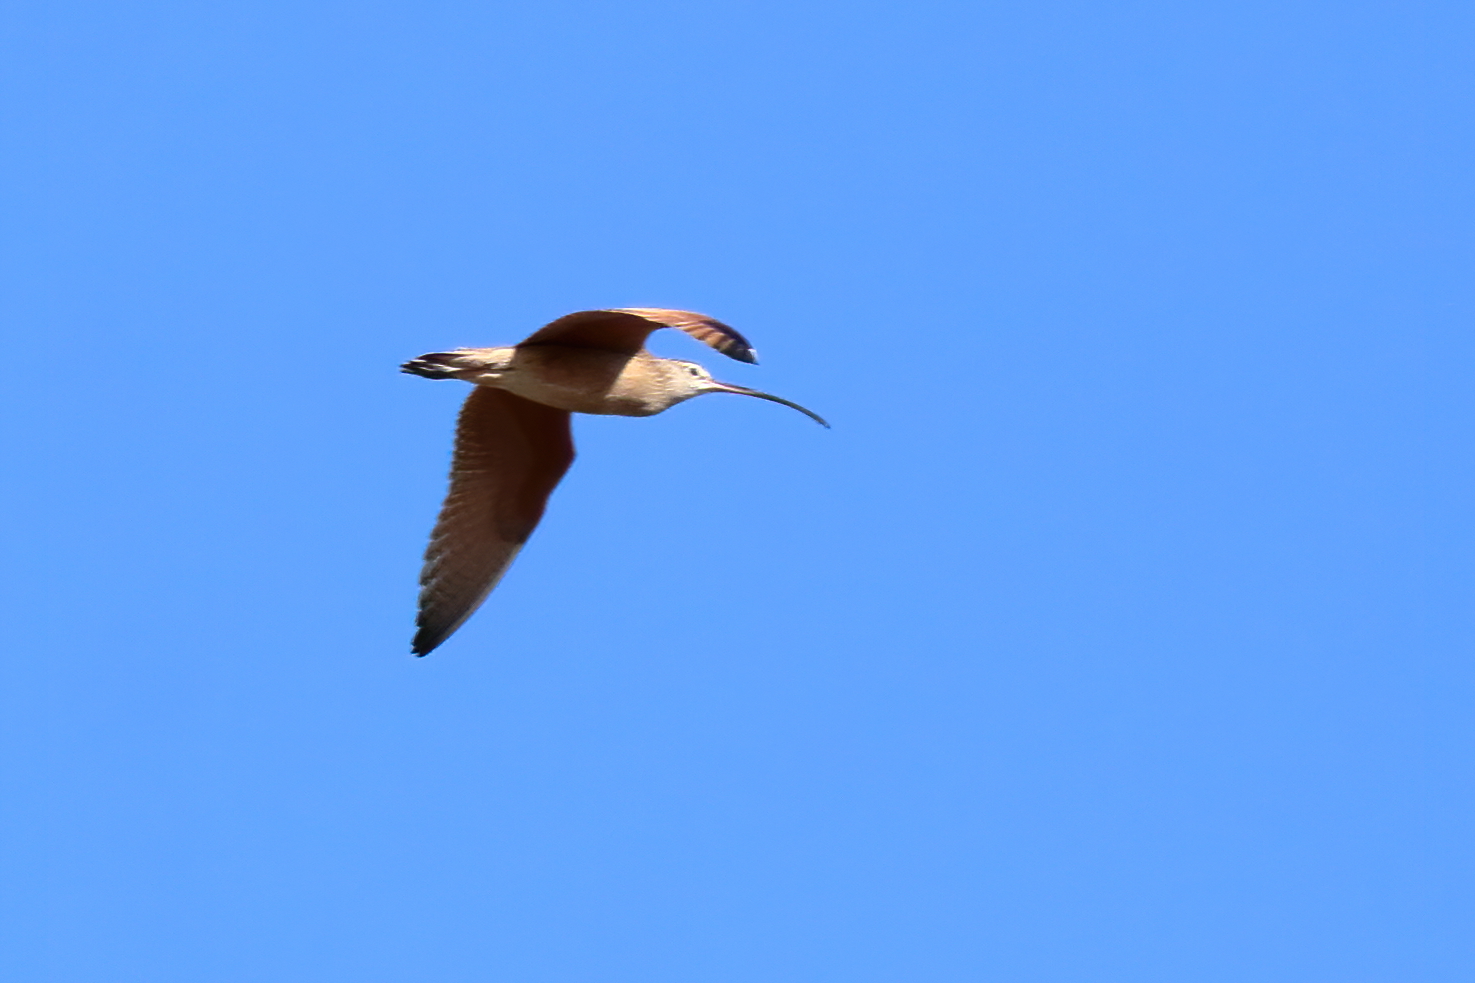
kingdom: Animalia
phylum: Chordata
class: Aves
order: Charadriiformes
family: Scolopacidae
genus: Numenius
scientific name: Numenius americanus
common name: Long-billed curlew
